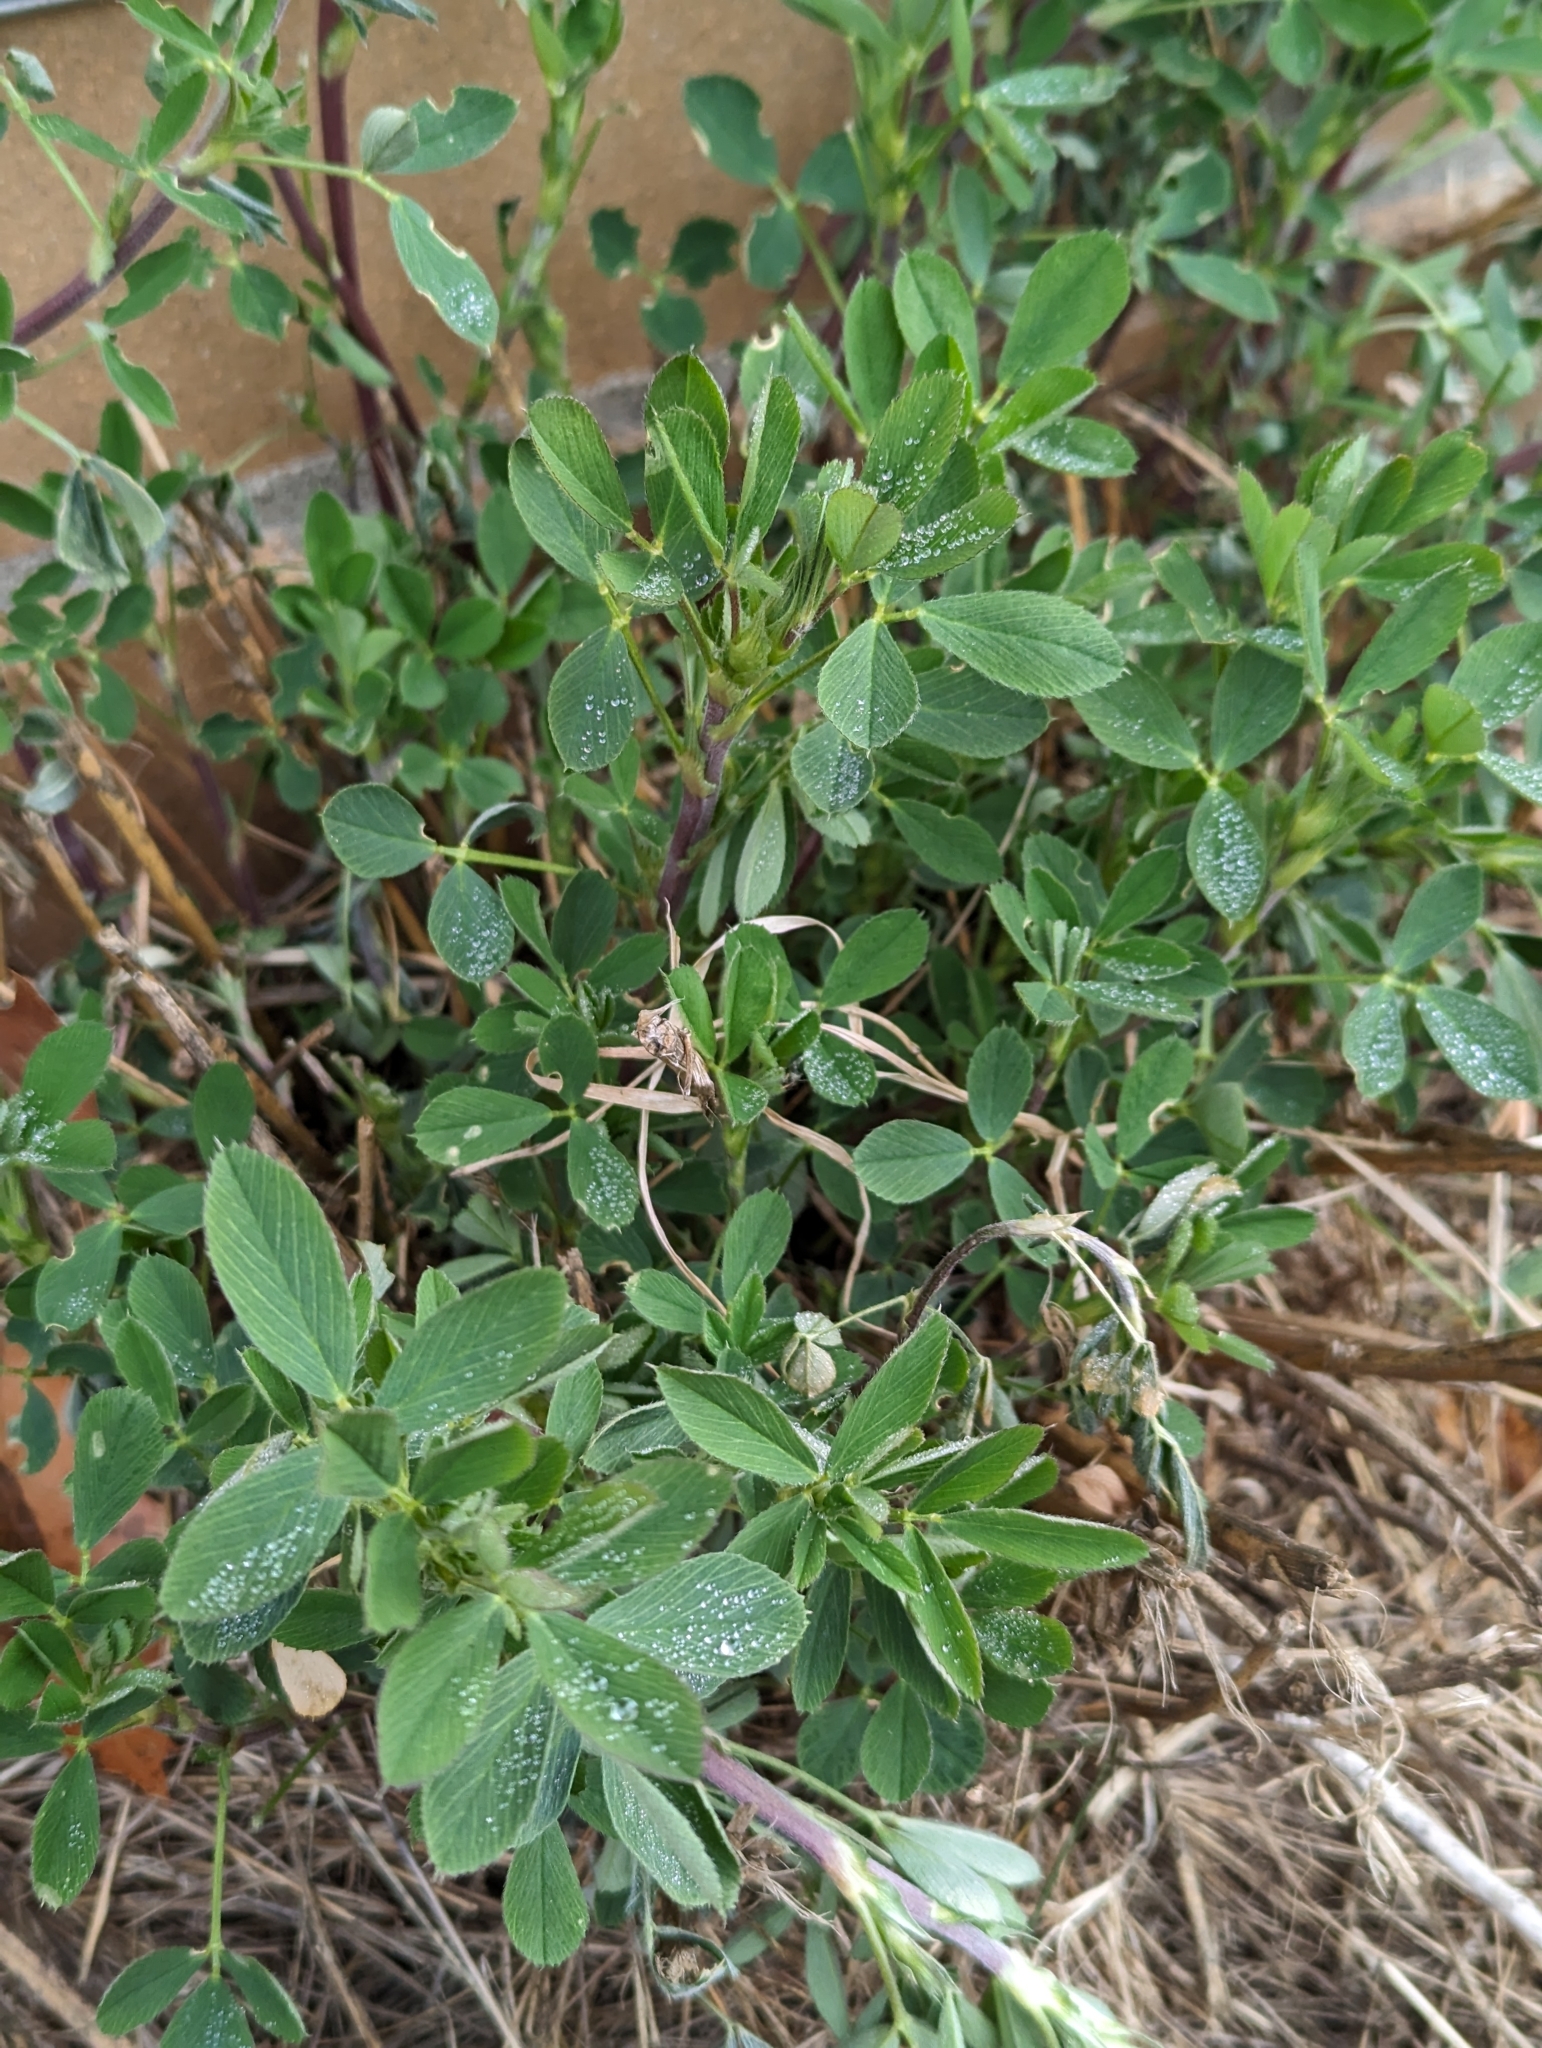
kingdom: Plantae
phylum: Tracheophyta
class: Magnoliopsida
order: Fabales
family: Fabaceae
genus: Medicago
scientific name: Medicago sativa
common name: Alfalfa
